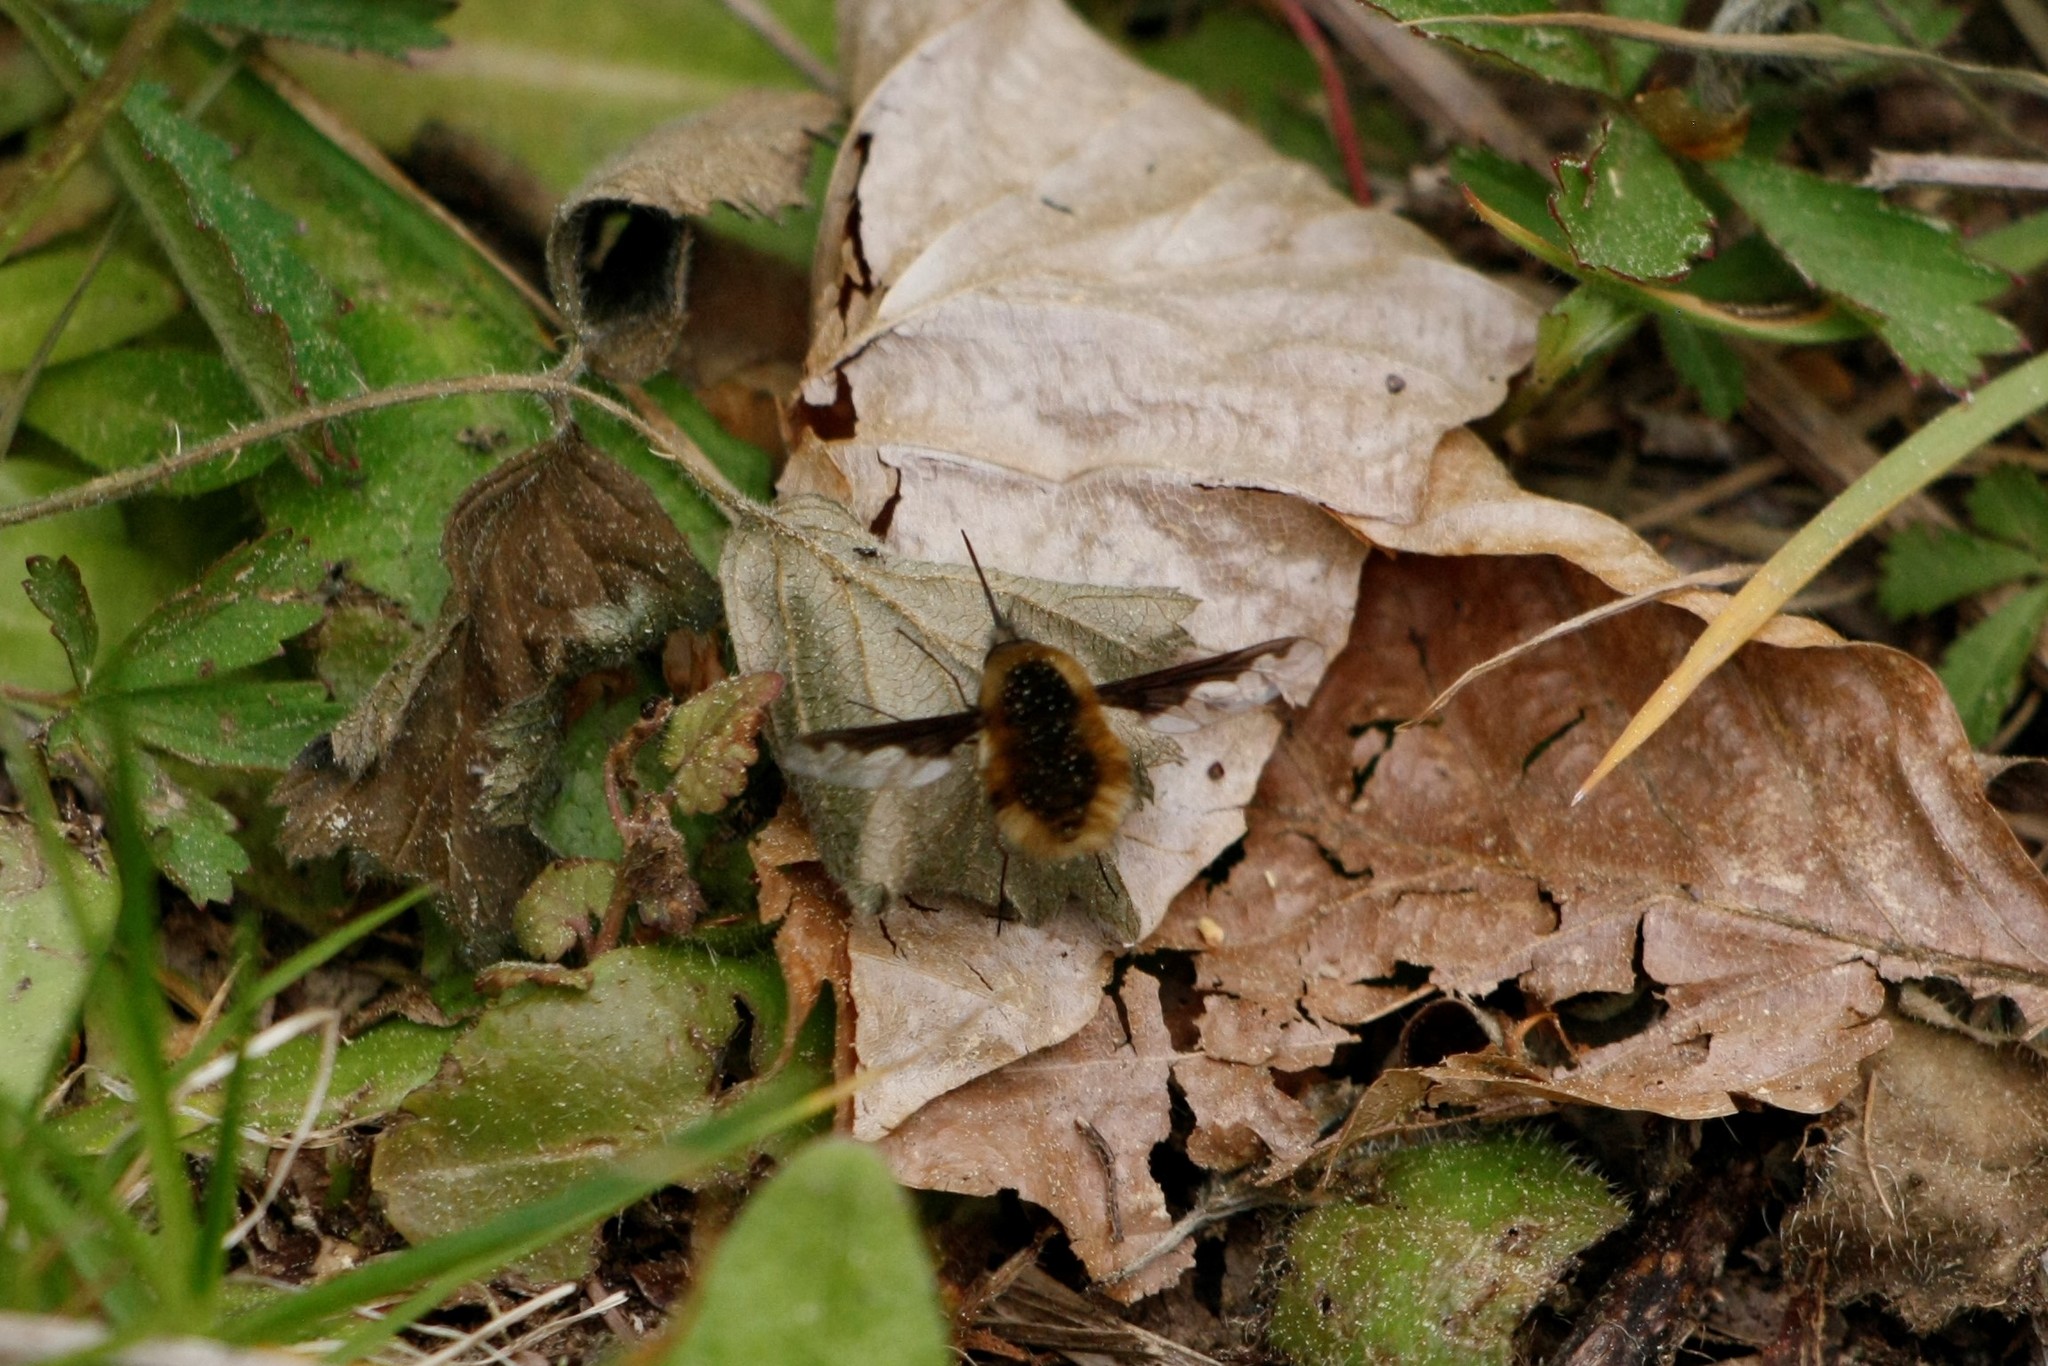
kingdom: Animalia
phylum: Arthropoda
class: Insecta
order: Diptera
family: Bombyliidae
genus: Bombylius
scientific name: Bombylius major
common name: Bee fly
